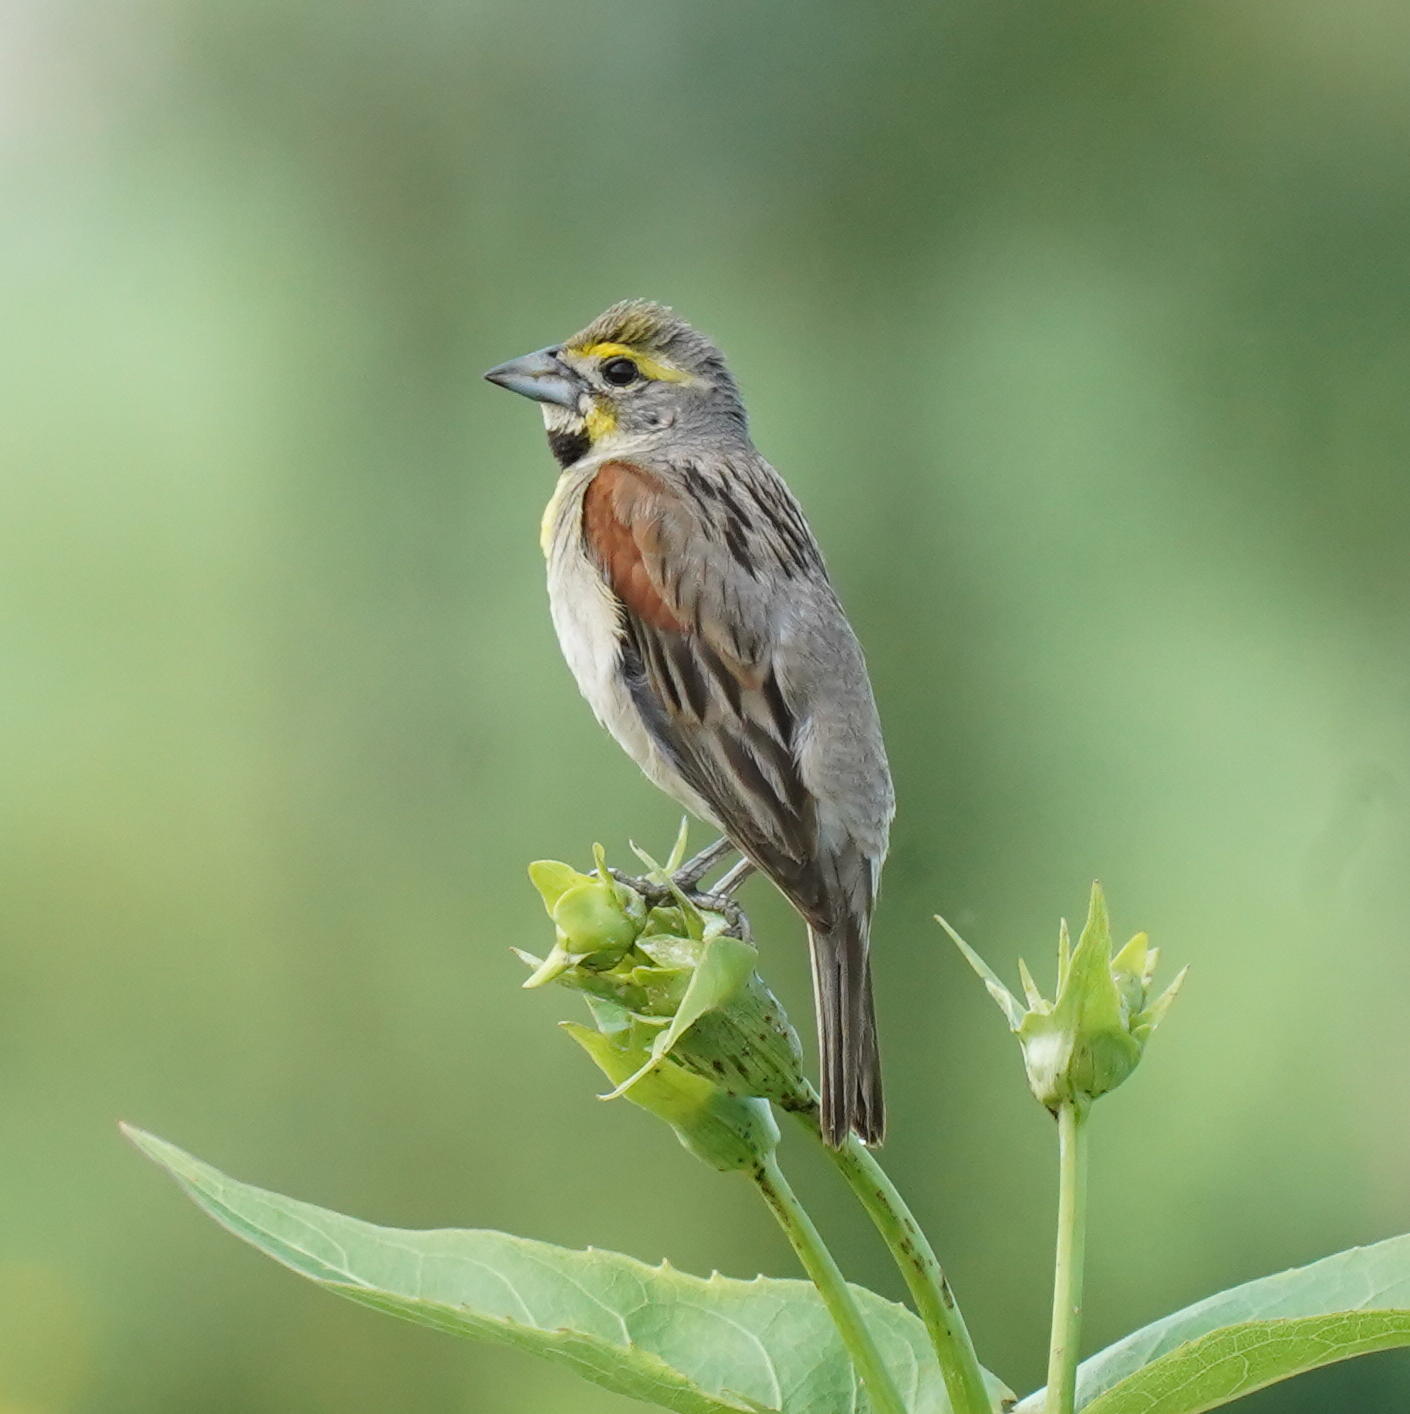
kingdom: Animalia
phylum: Chordata
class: Aves
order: Passeriformes
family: Cardinalidae
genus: Spiza
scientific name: Spiza americana
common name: Dickcissel
